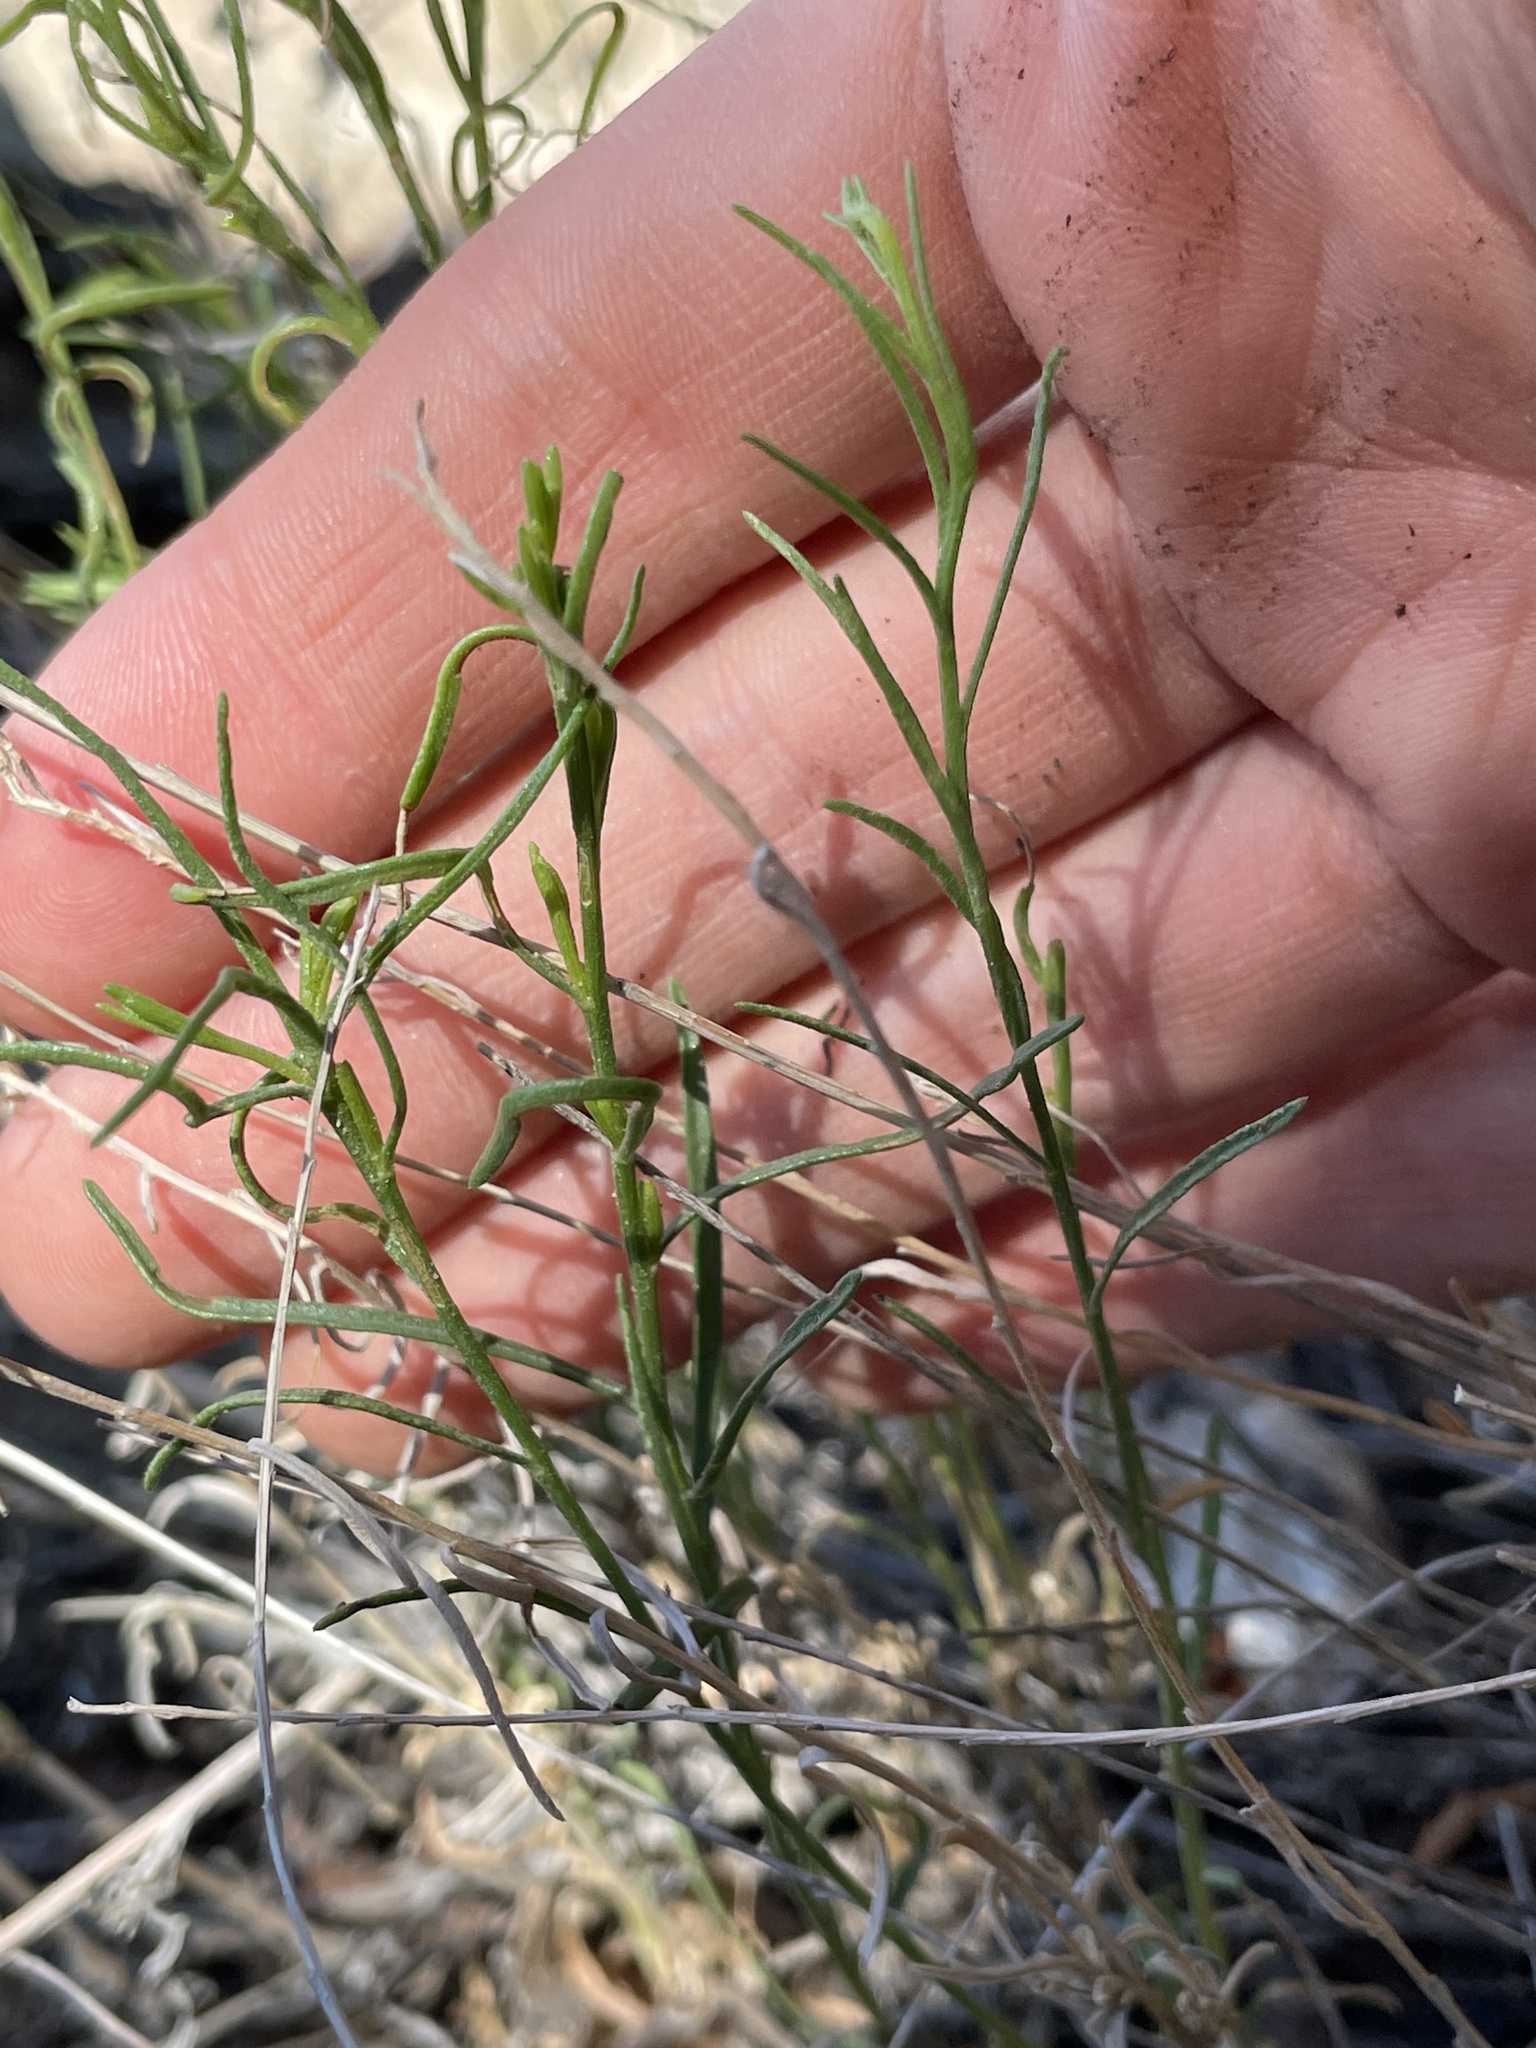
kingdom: Plantae
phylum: Tracheophyta
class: Magnoliopsida
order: Asterales
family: Asteraceae
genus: Gutierrezia
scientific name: Gutierrezia sarothrae
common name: Broom snakeweed
